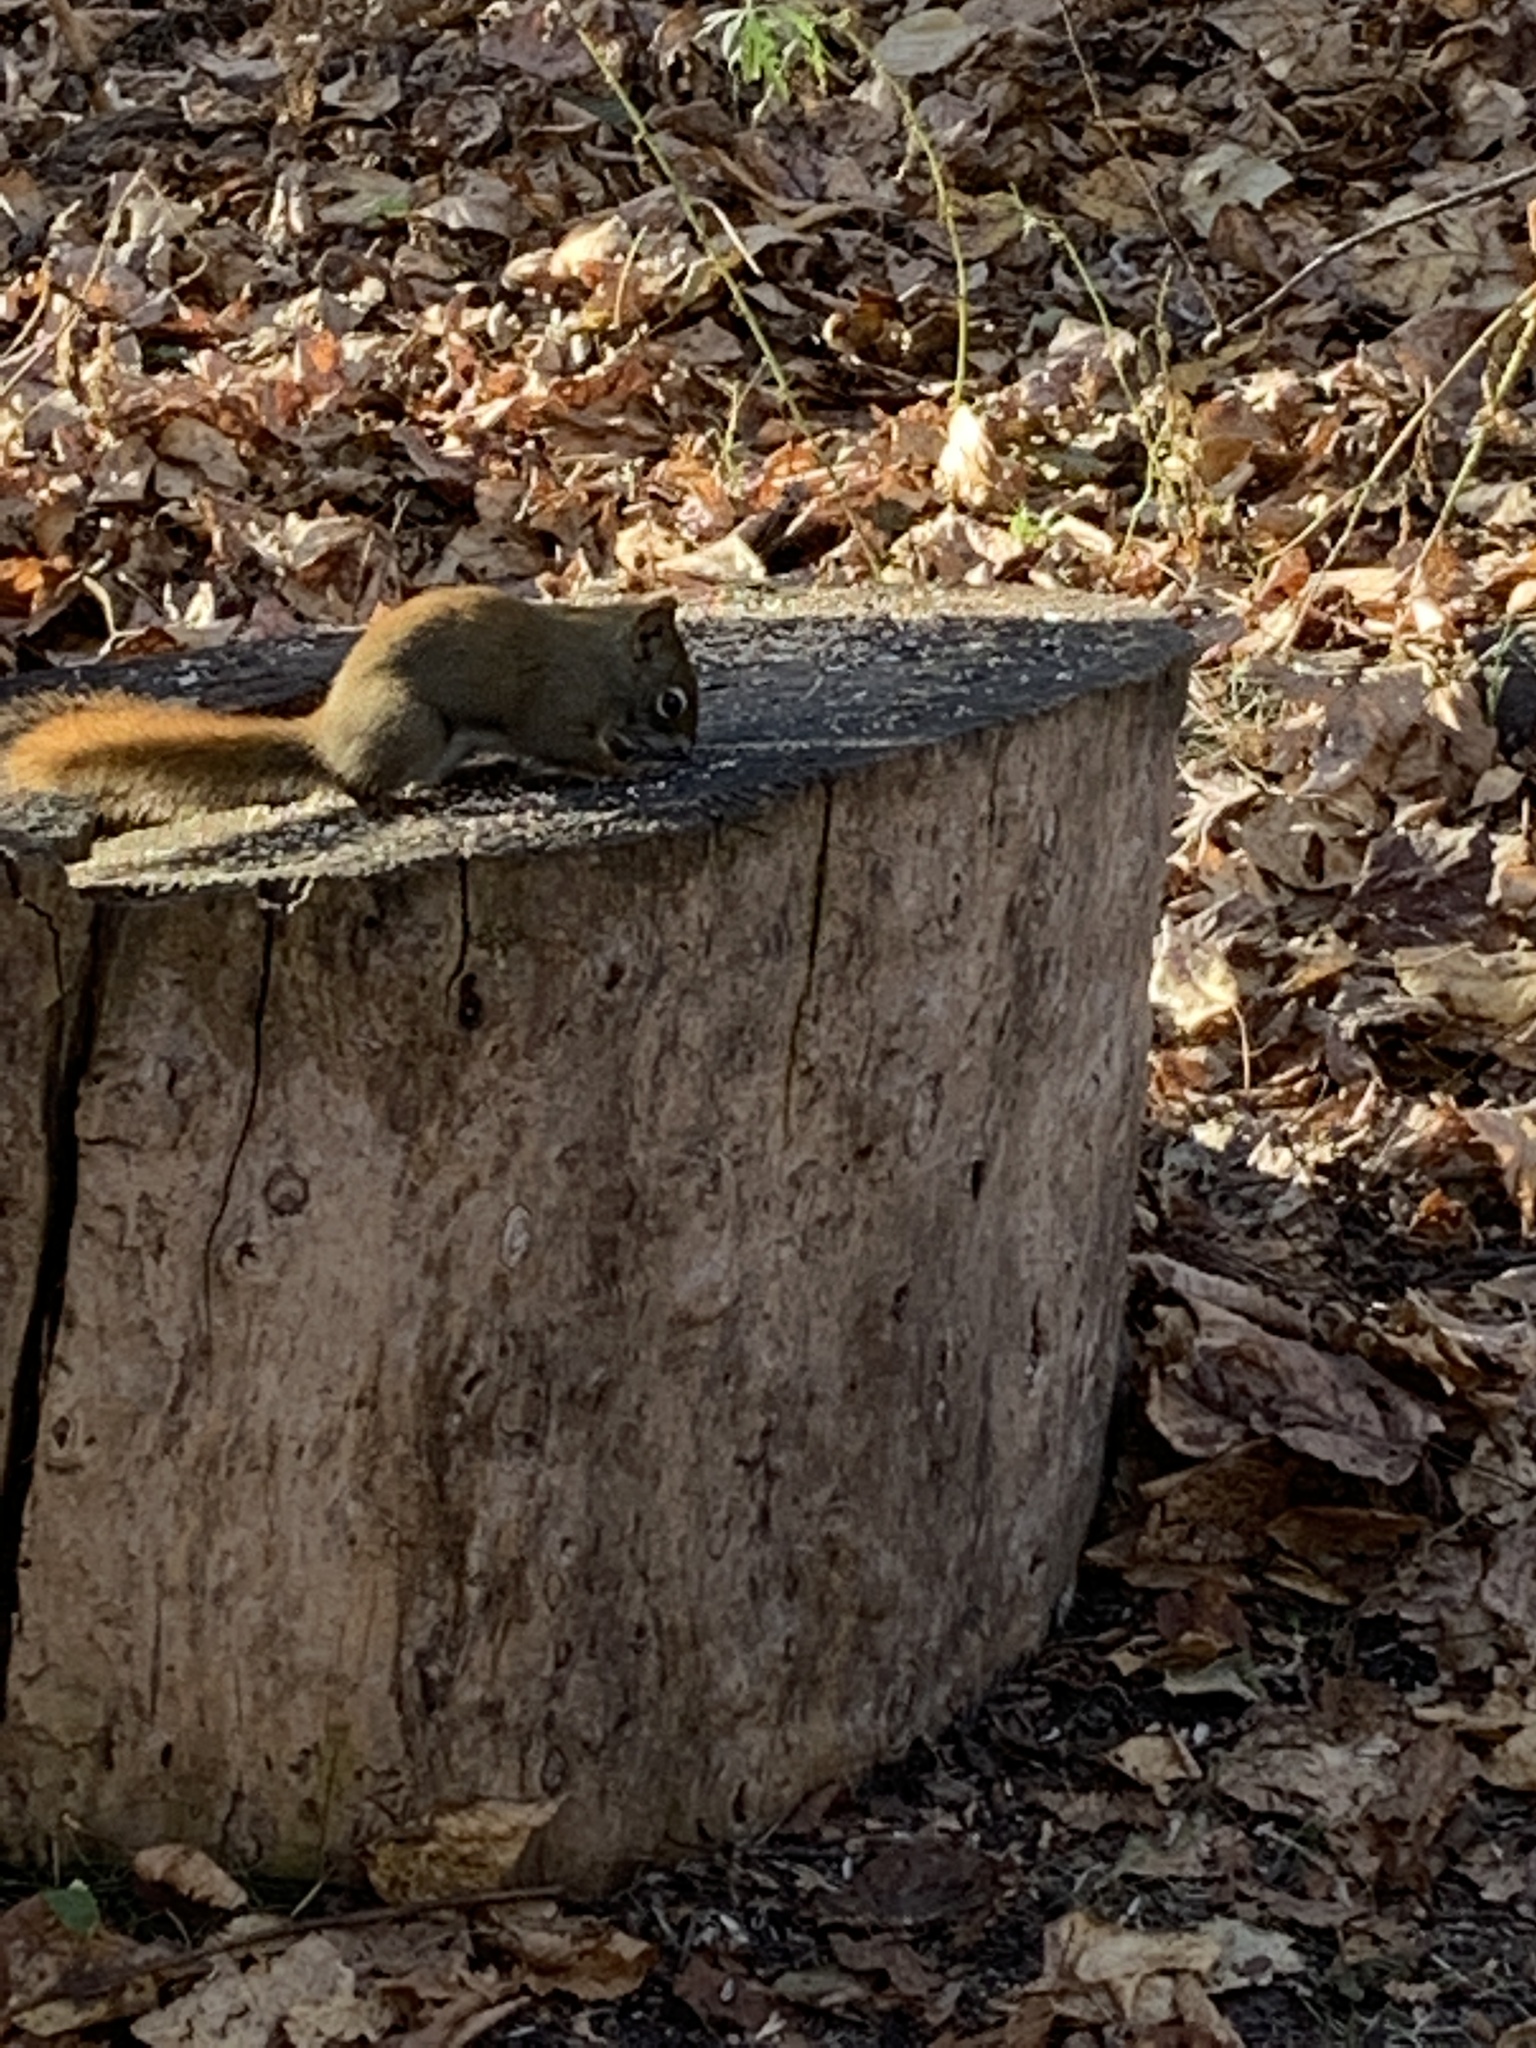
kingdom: Animalia
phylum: Chordata
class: Mammalia
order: Rodentia
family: Sciuridae
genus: Tamiasciurus
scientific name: Tamiasciurus hudsonicus
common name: Red squirrel
